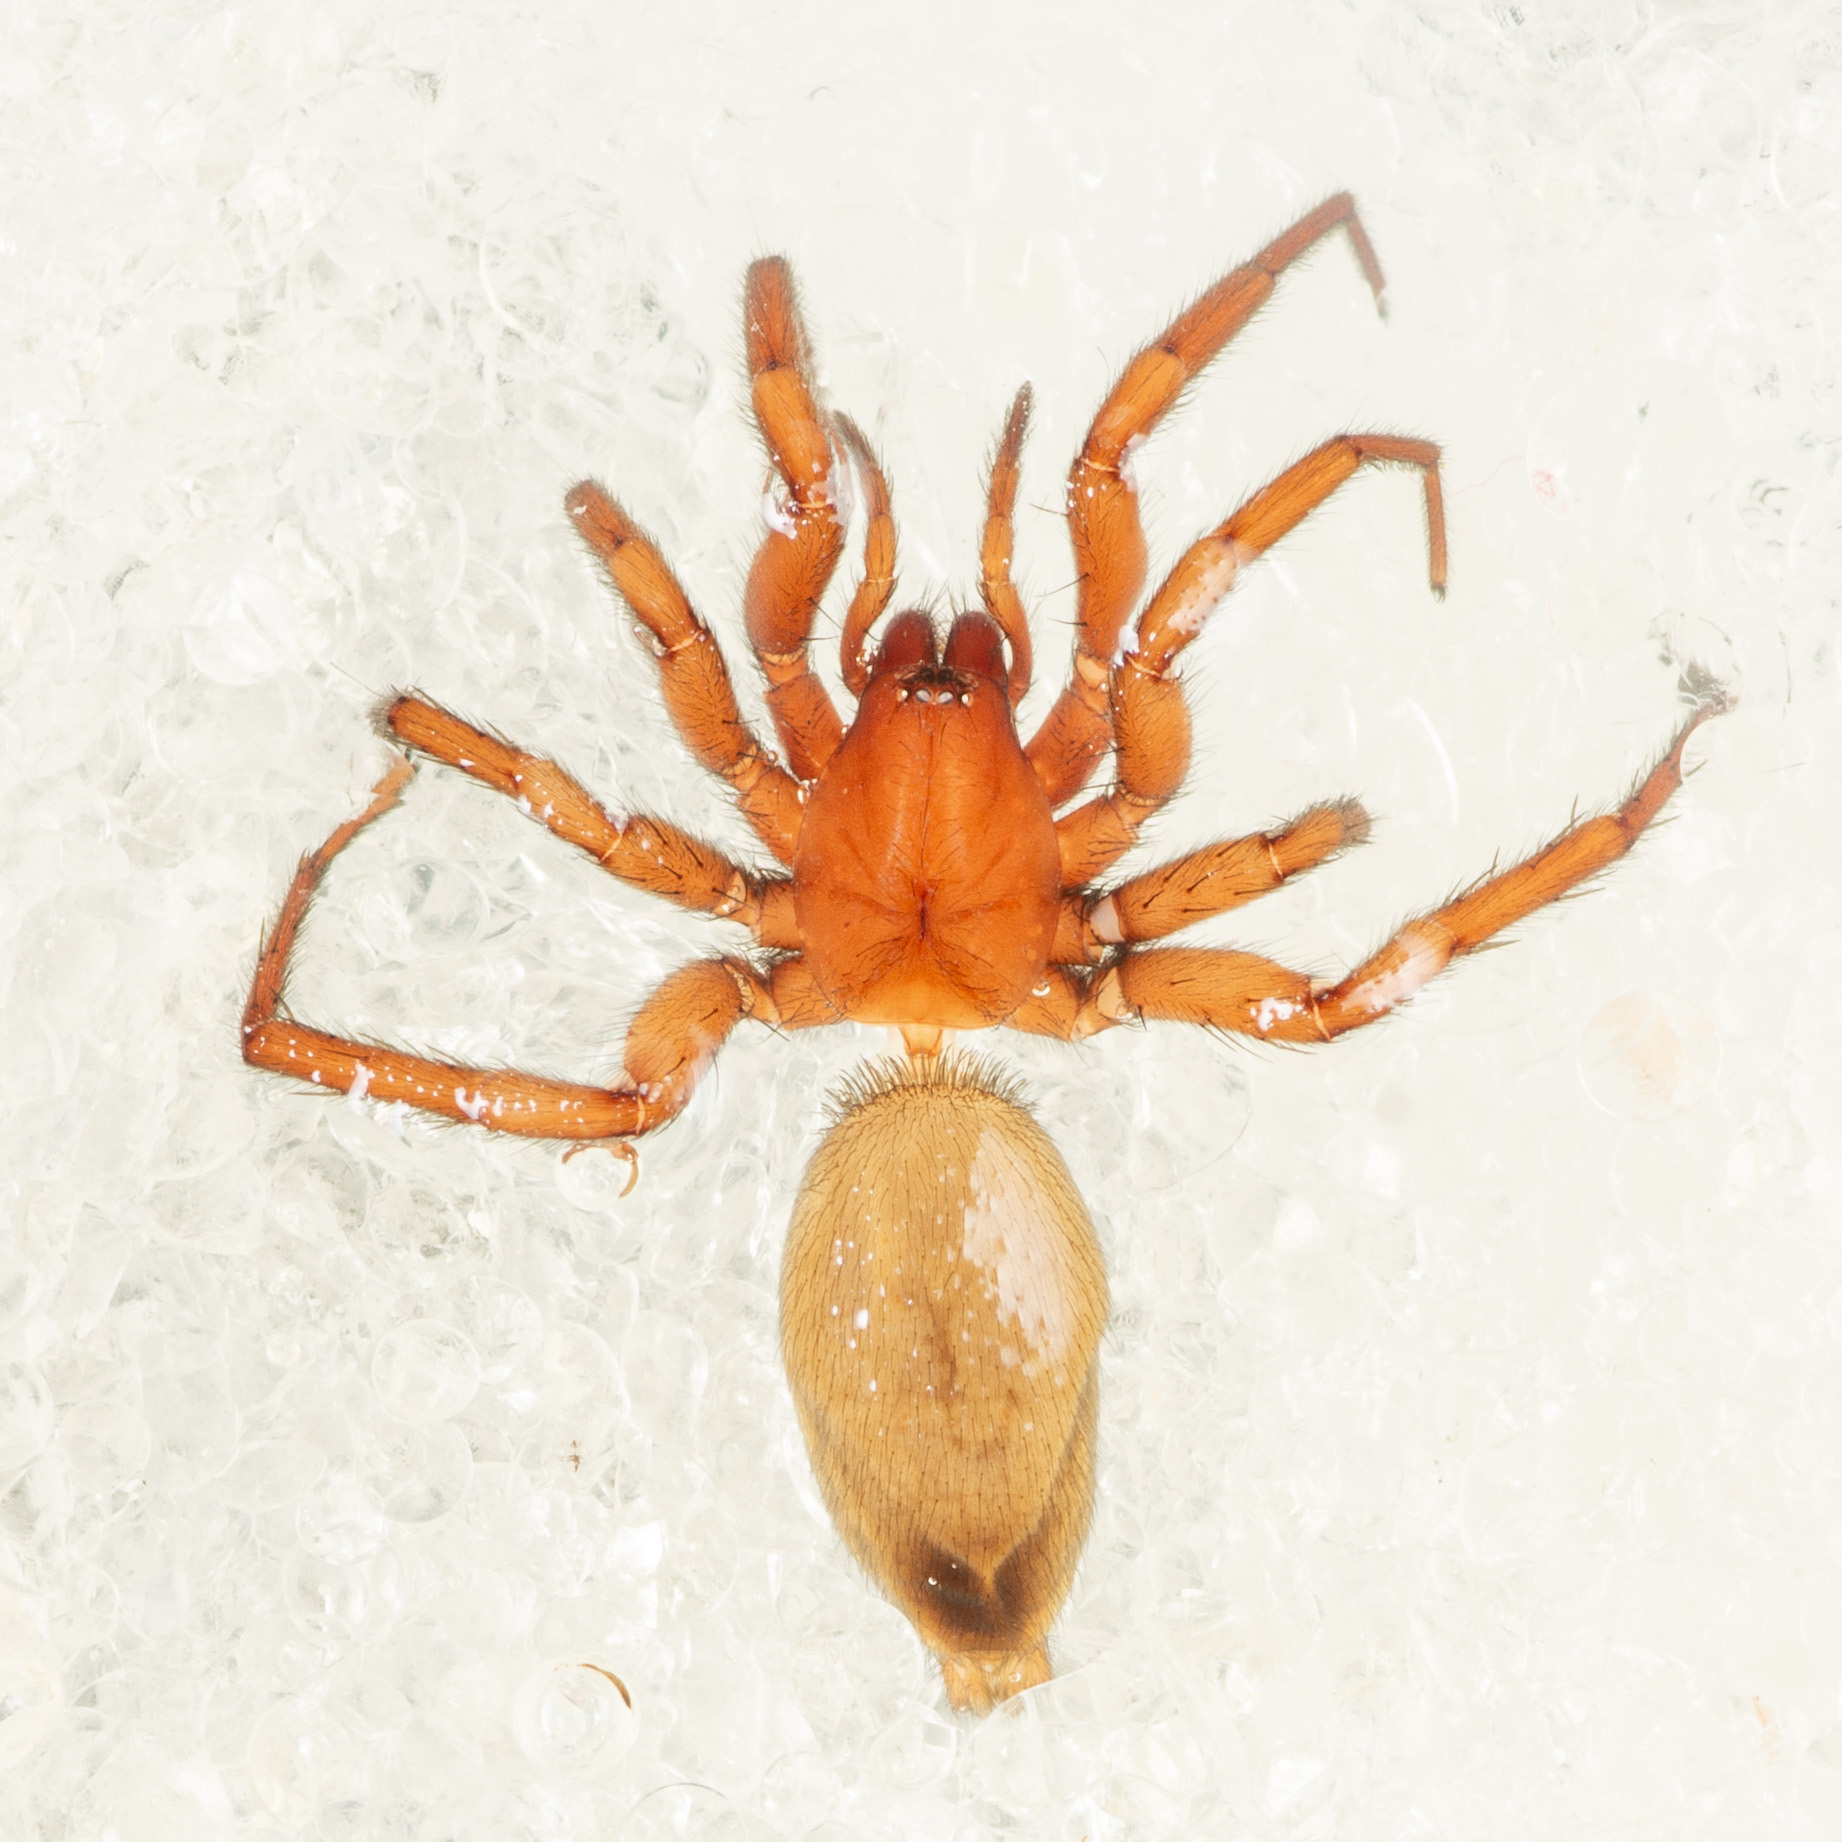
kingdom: Animalia
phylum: Arthropoda
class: Arachnida
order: Araneae
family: Gnaphosidae
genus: Urozelotes
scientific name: Urozelotes rusticus
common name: Spider
